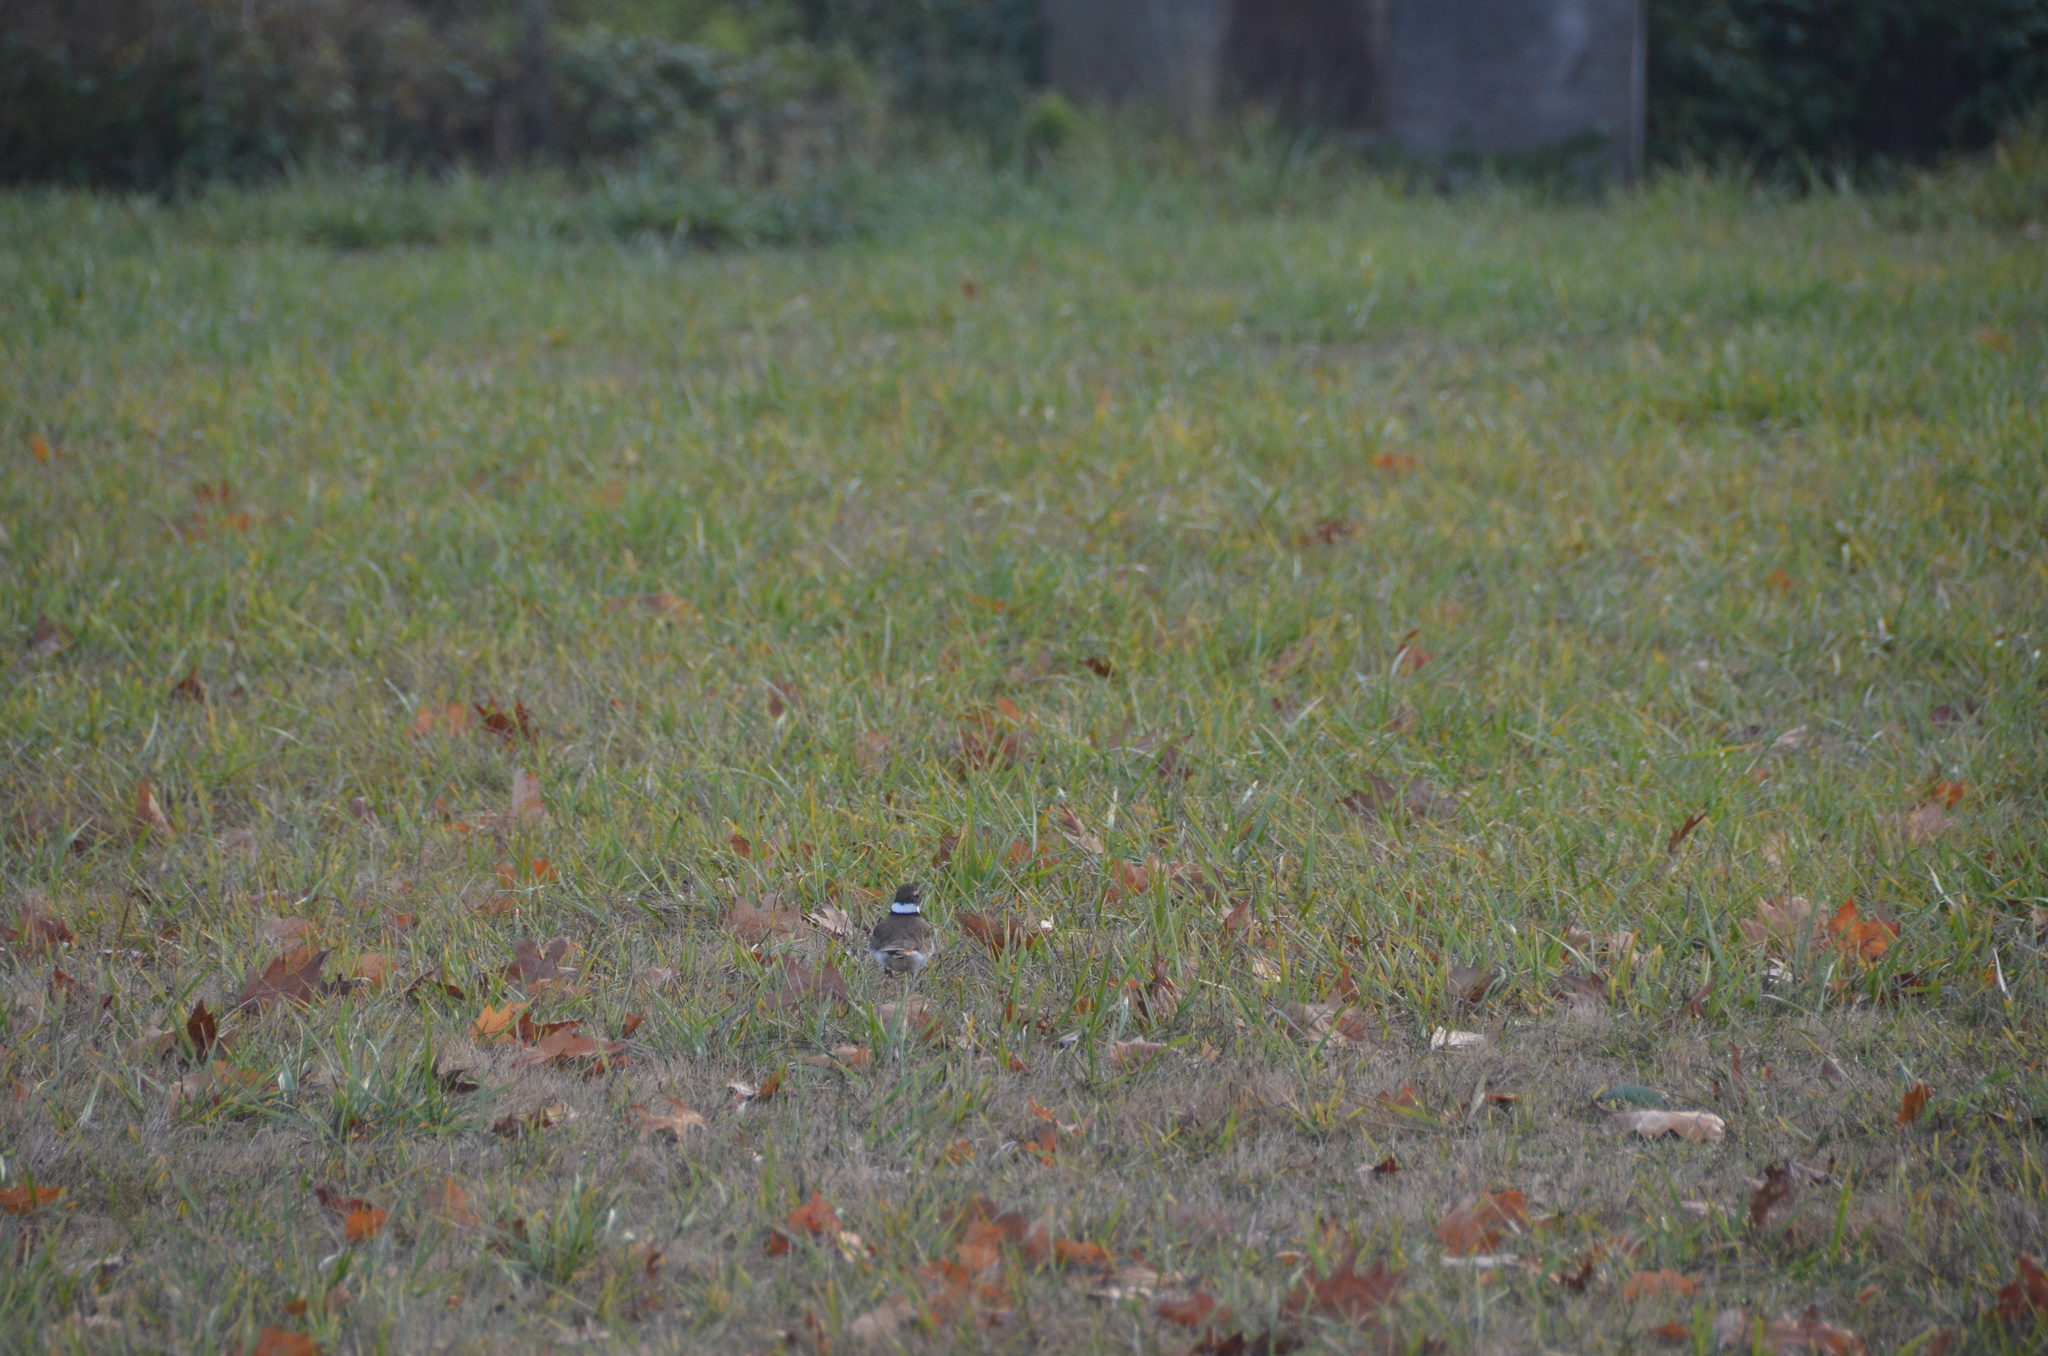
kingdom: Animalia
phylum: Chordata
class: Aves
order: Charadriiformes
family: Charadriidae
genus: Charadrius
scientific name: Charadrius vociferus
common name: Killdeer
